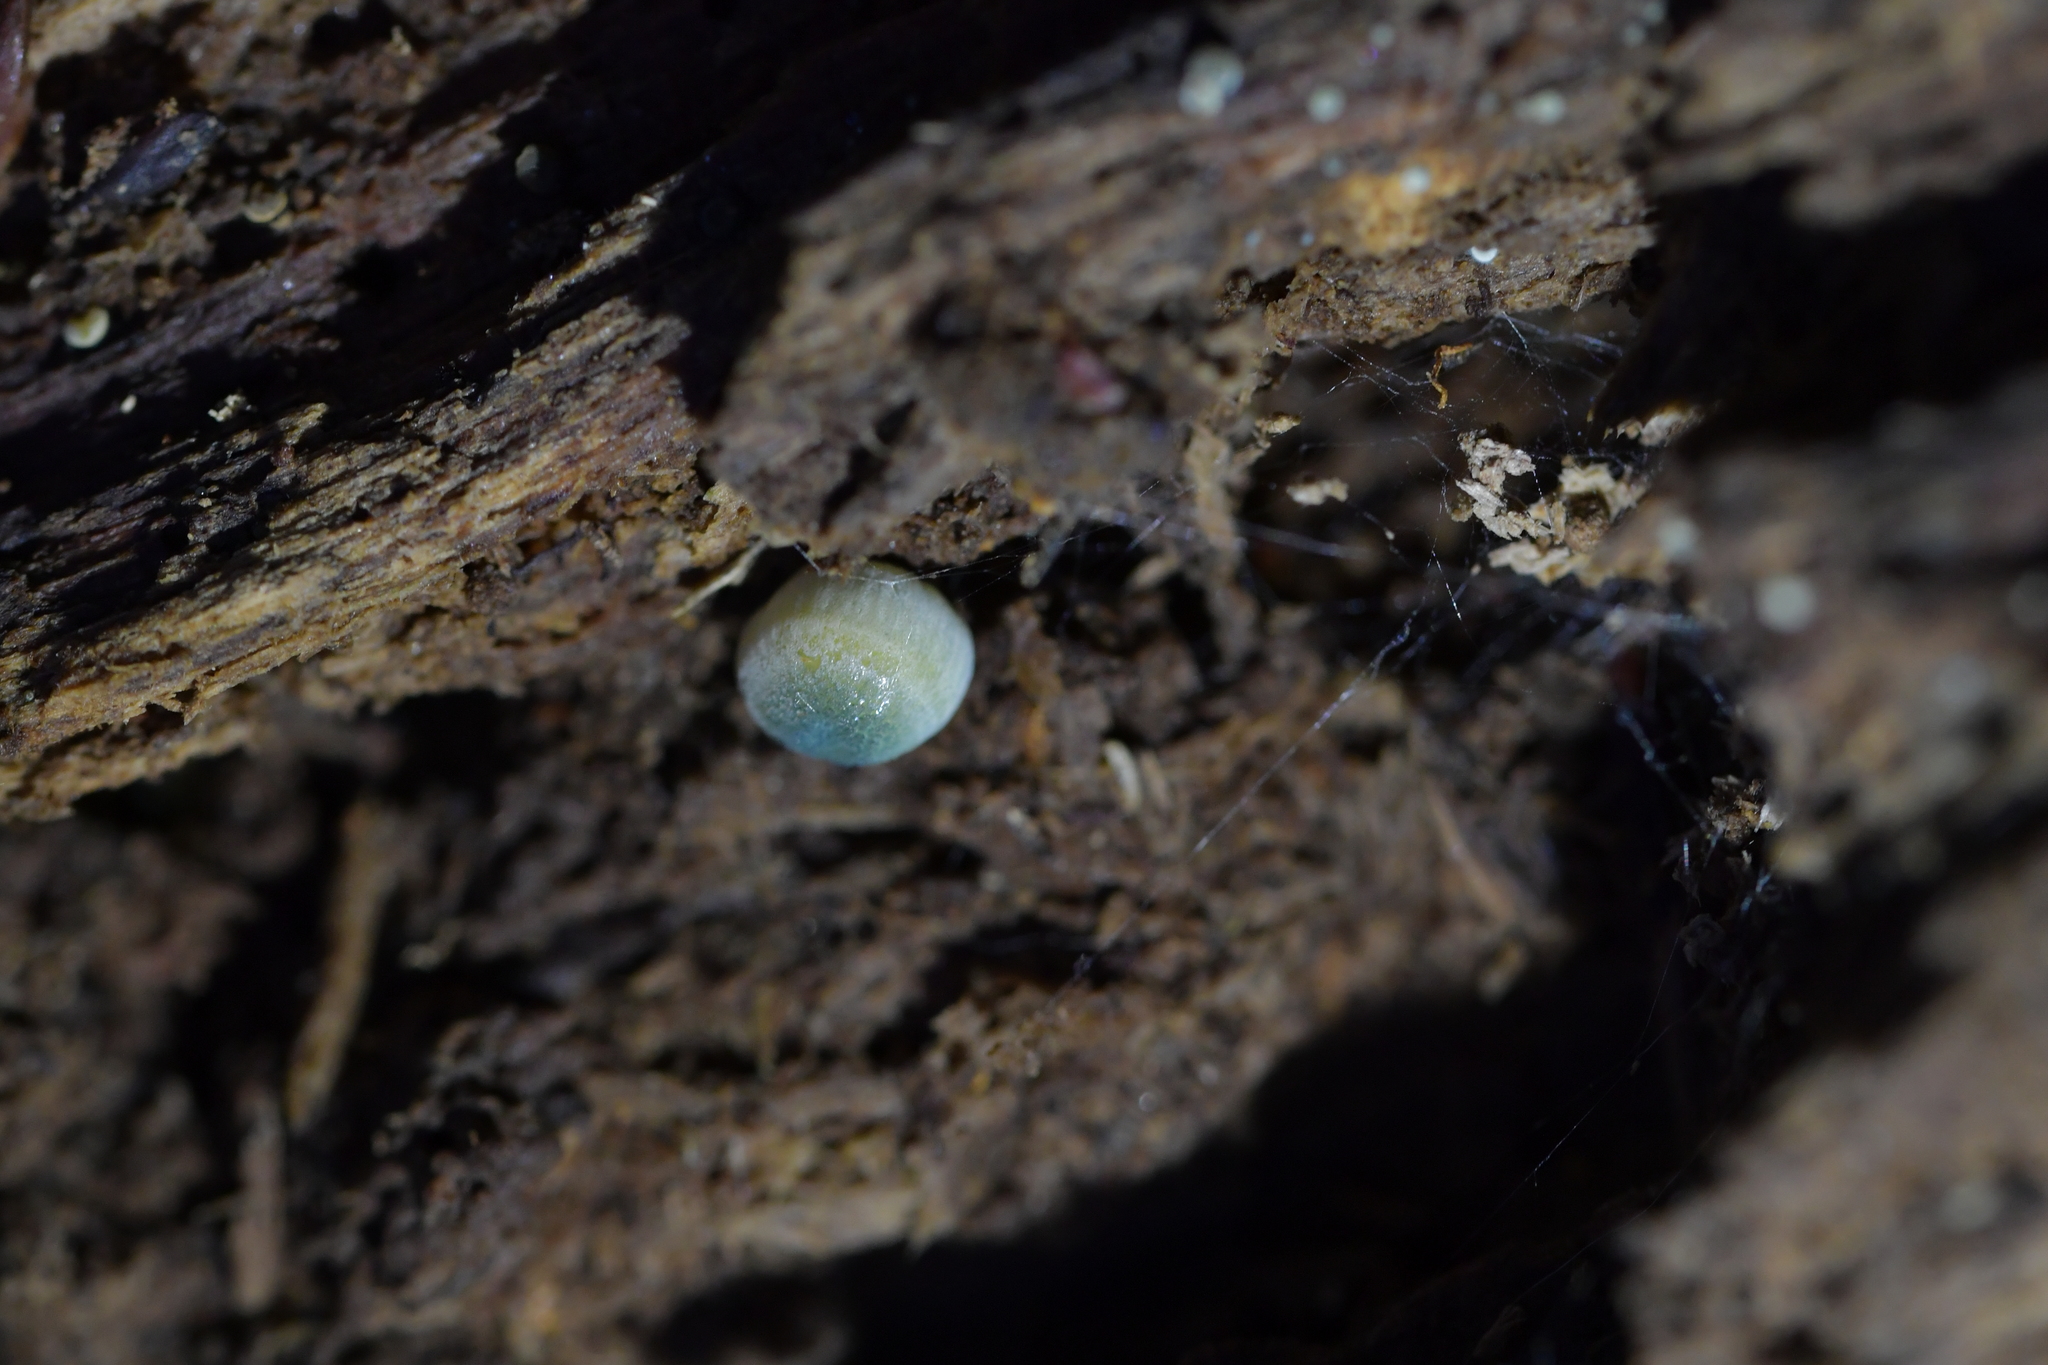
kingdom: Fungi
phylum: Basidiomycota
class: Agaricomycetes
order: Agaricales
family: Mycenaceae
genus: Mycena
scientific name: Mycena interrupta
